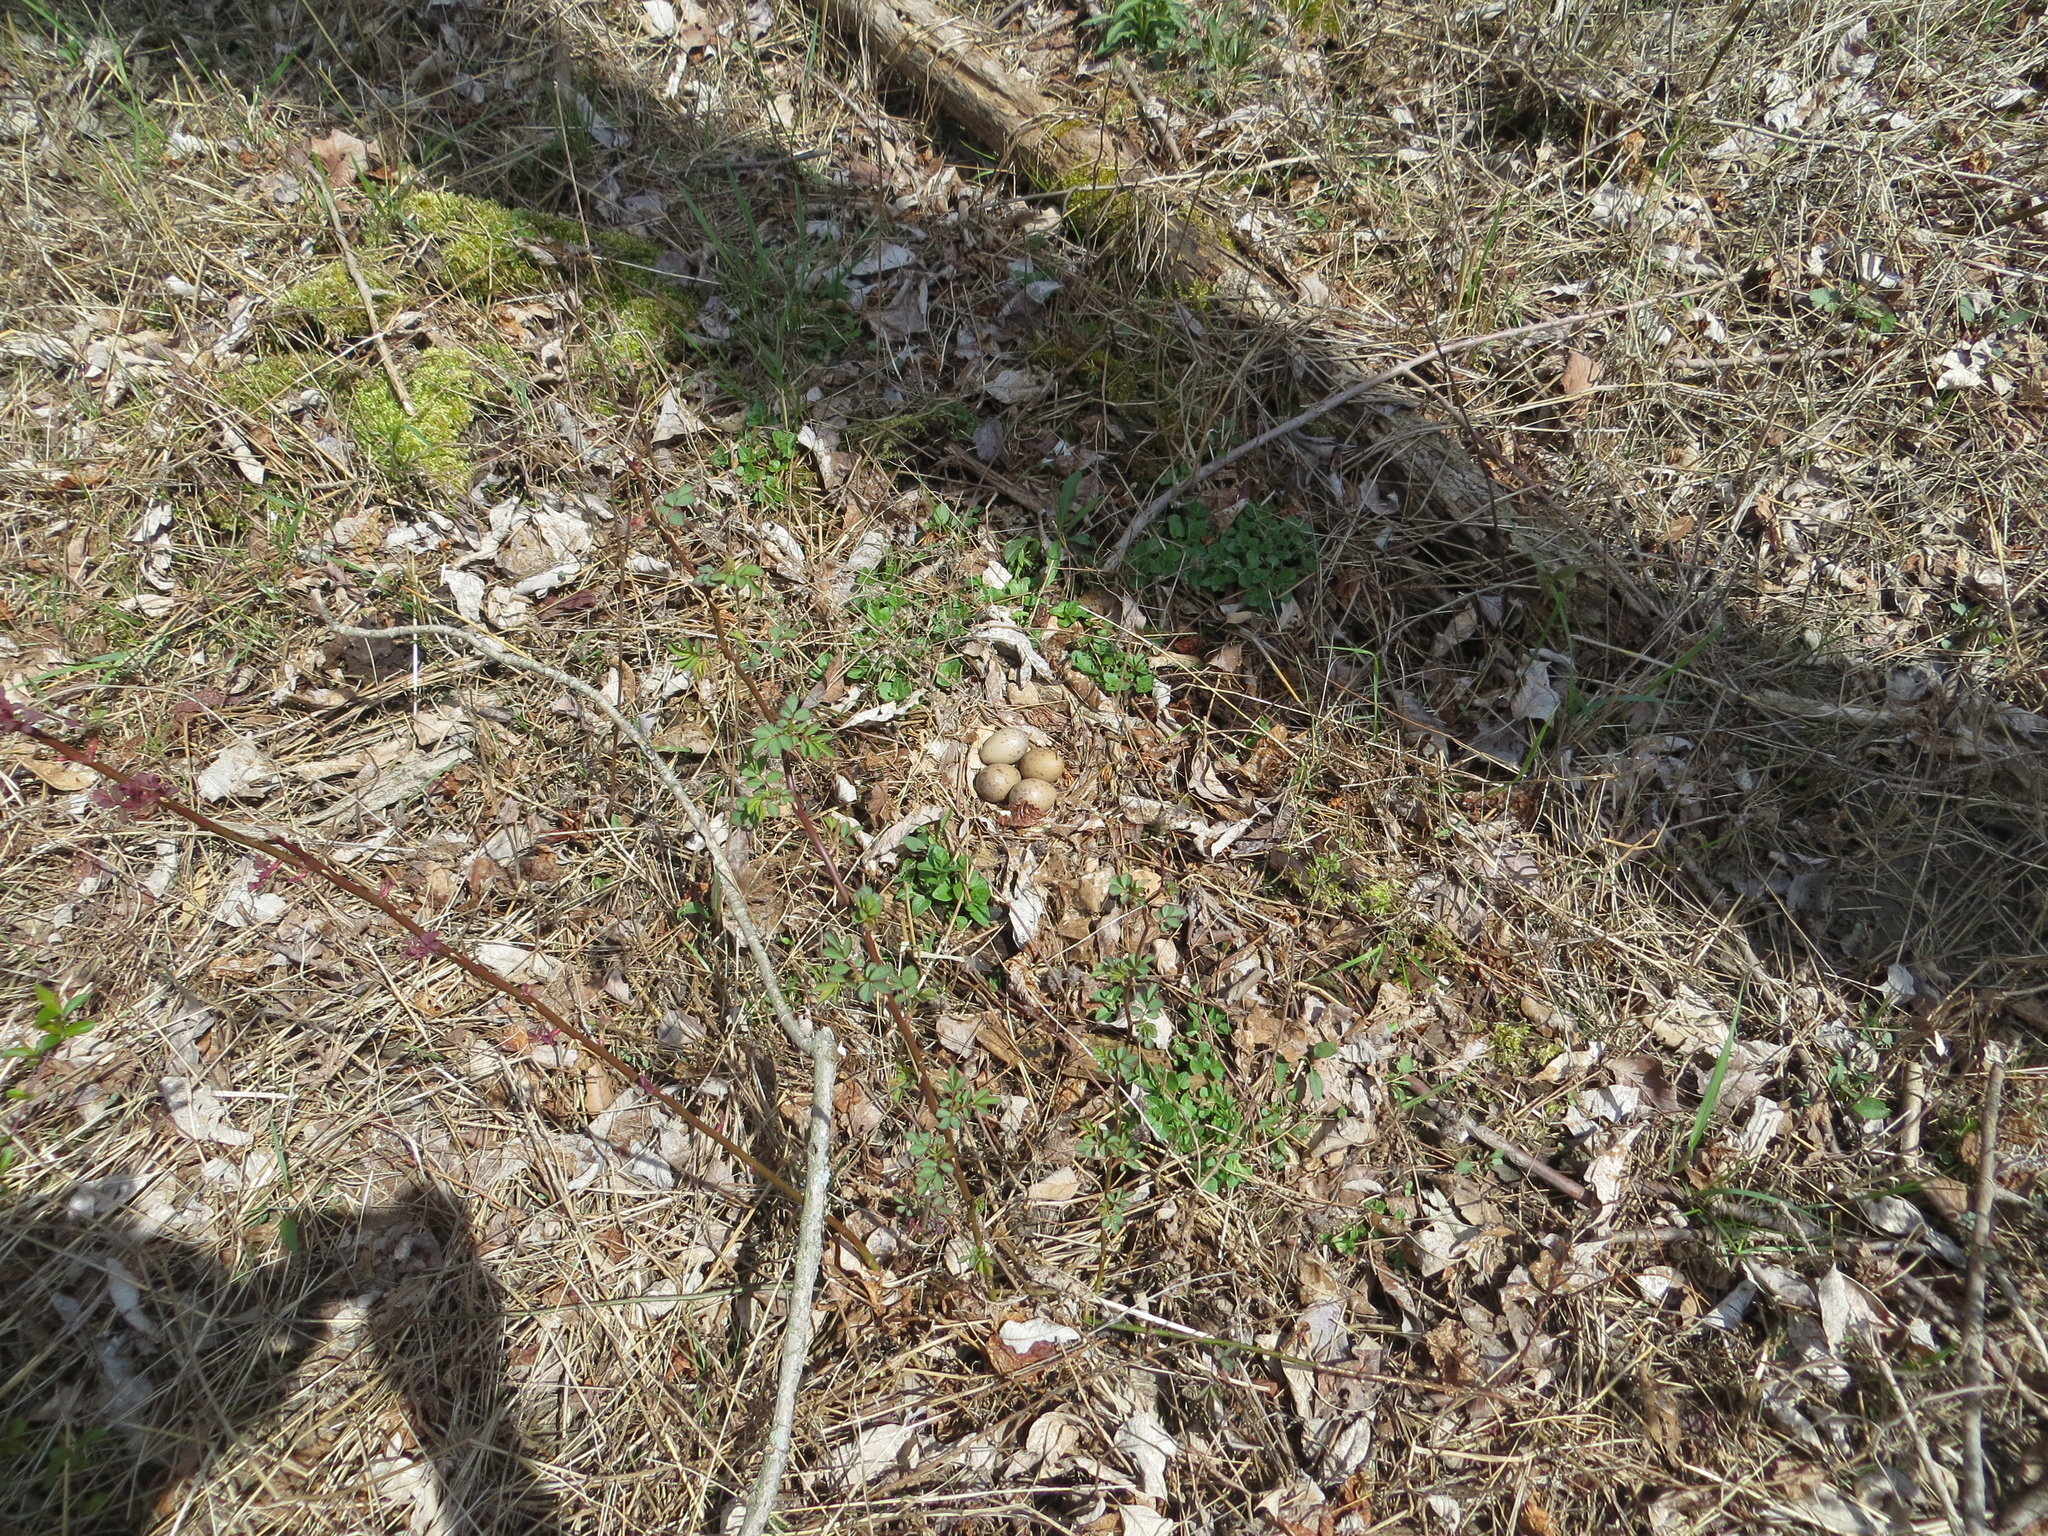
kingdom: Animalia
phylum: Chordata
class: Aves
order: Charadriiformes
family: Scolopacidae
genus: Scolopax
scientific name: Scolopax minor
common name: American woodcock
